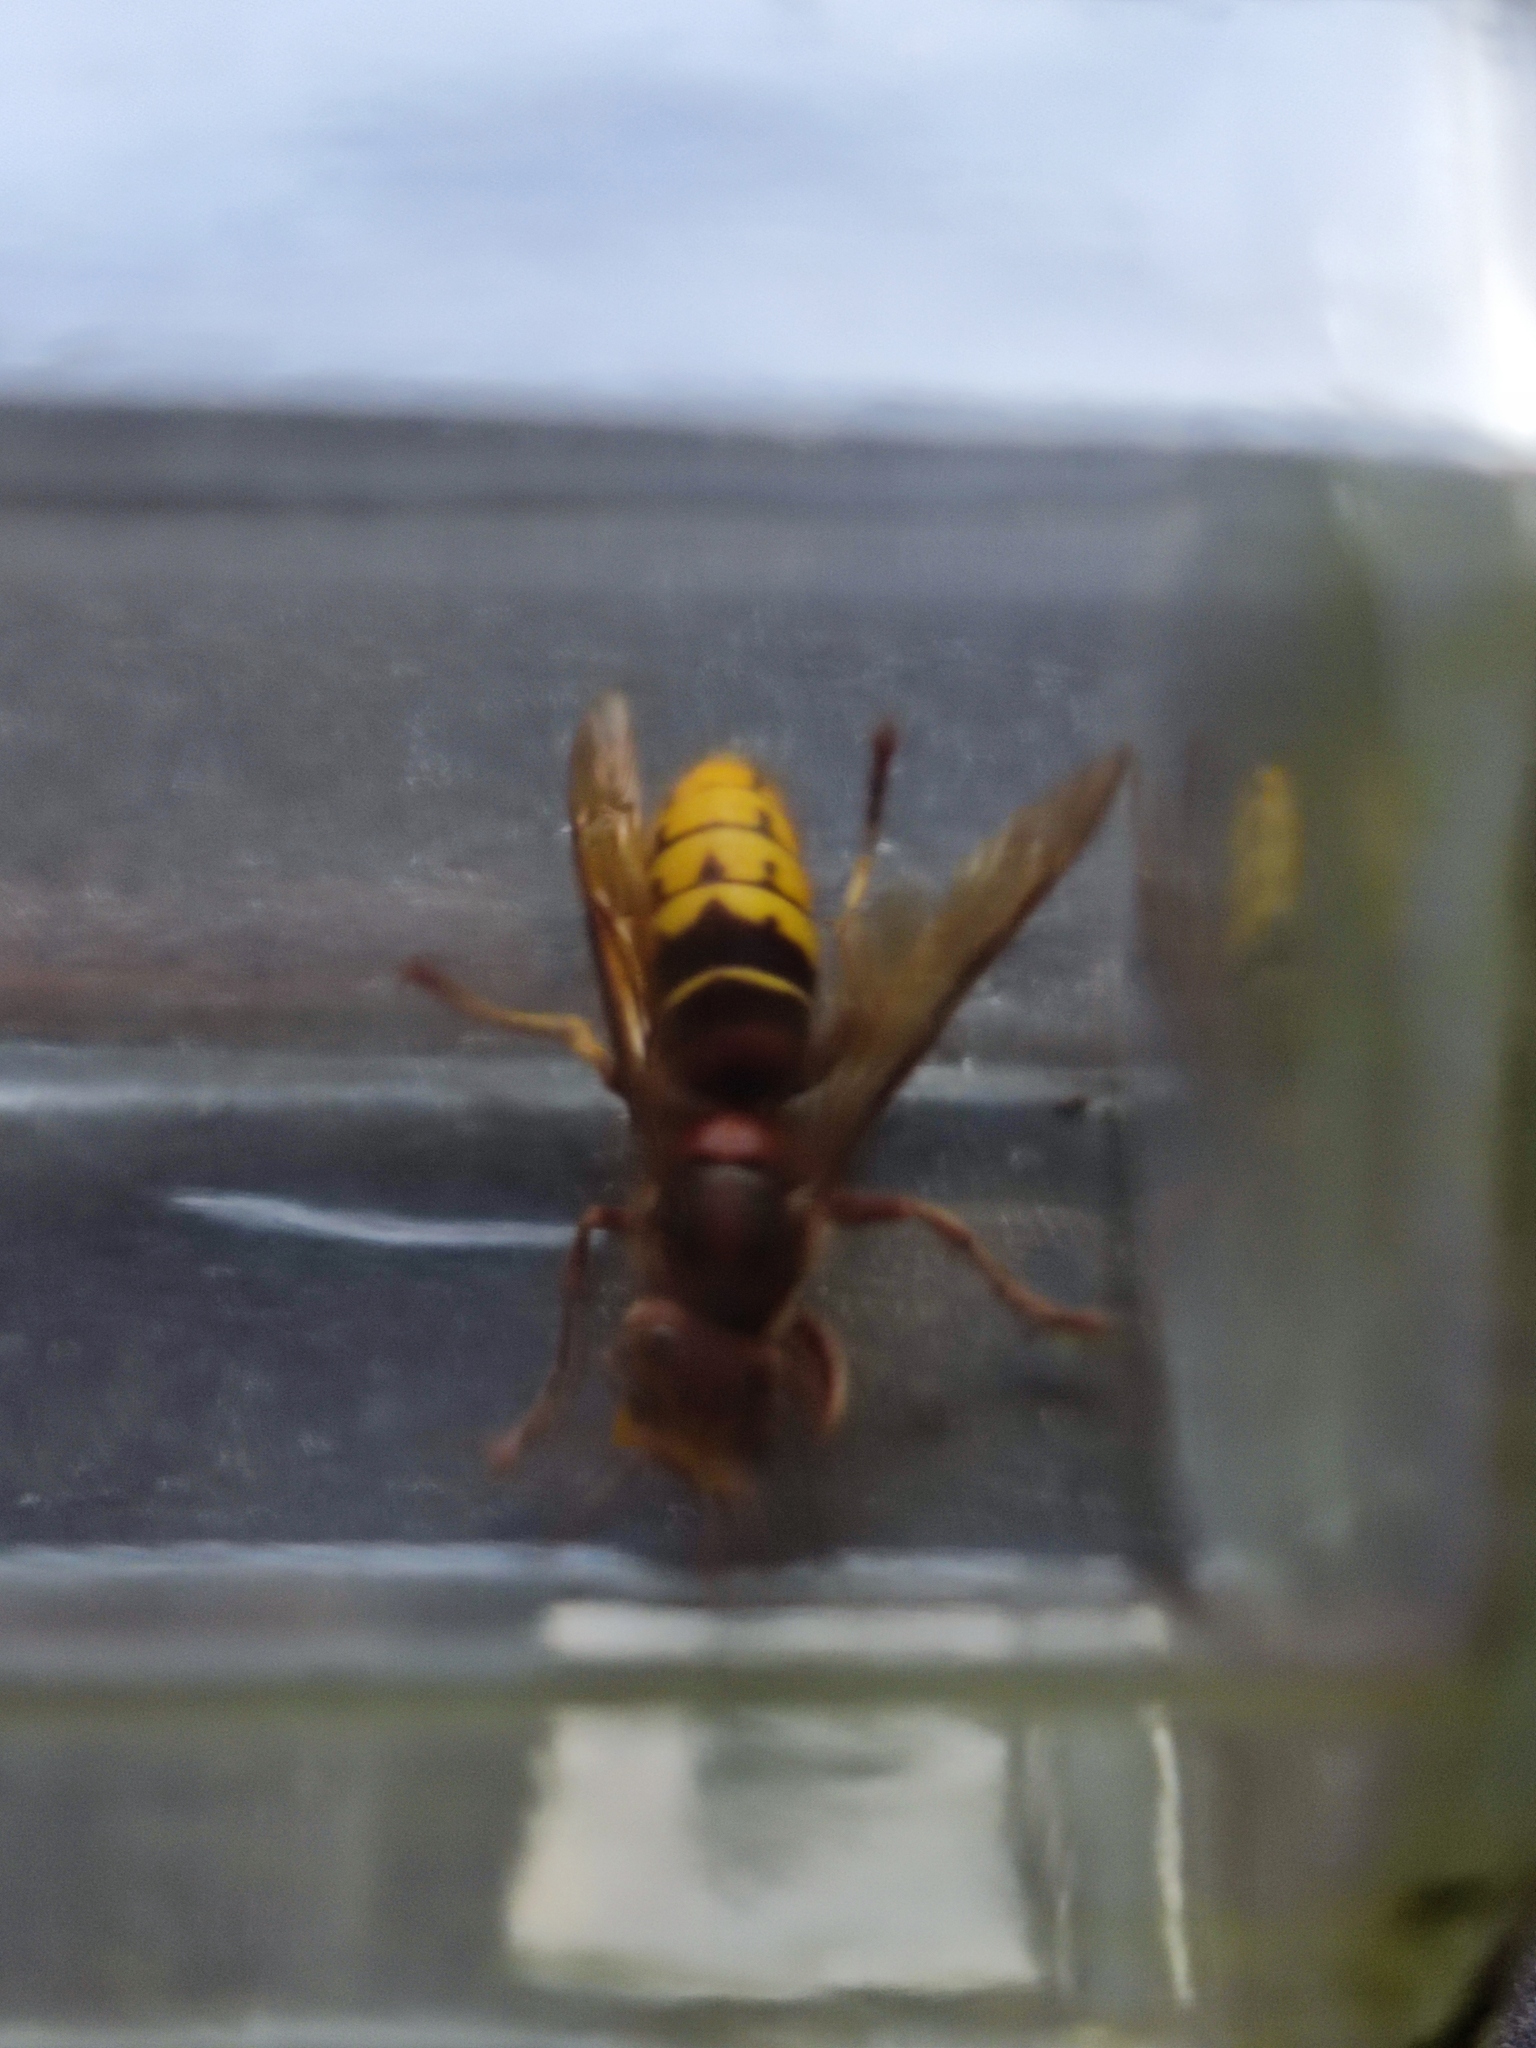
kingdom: Animalia
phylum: Arthropoda
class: Insecta
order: Hymenoptera
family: Vespidae
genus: Vespa
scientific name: Vespa crabro
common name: Hornet
